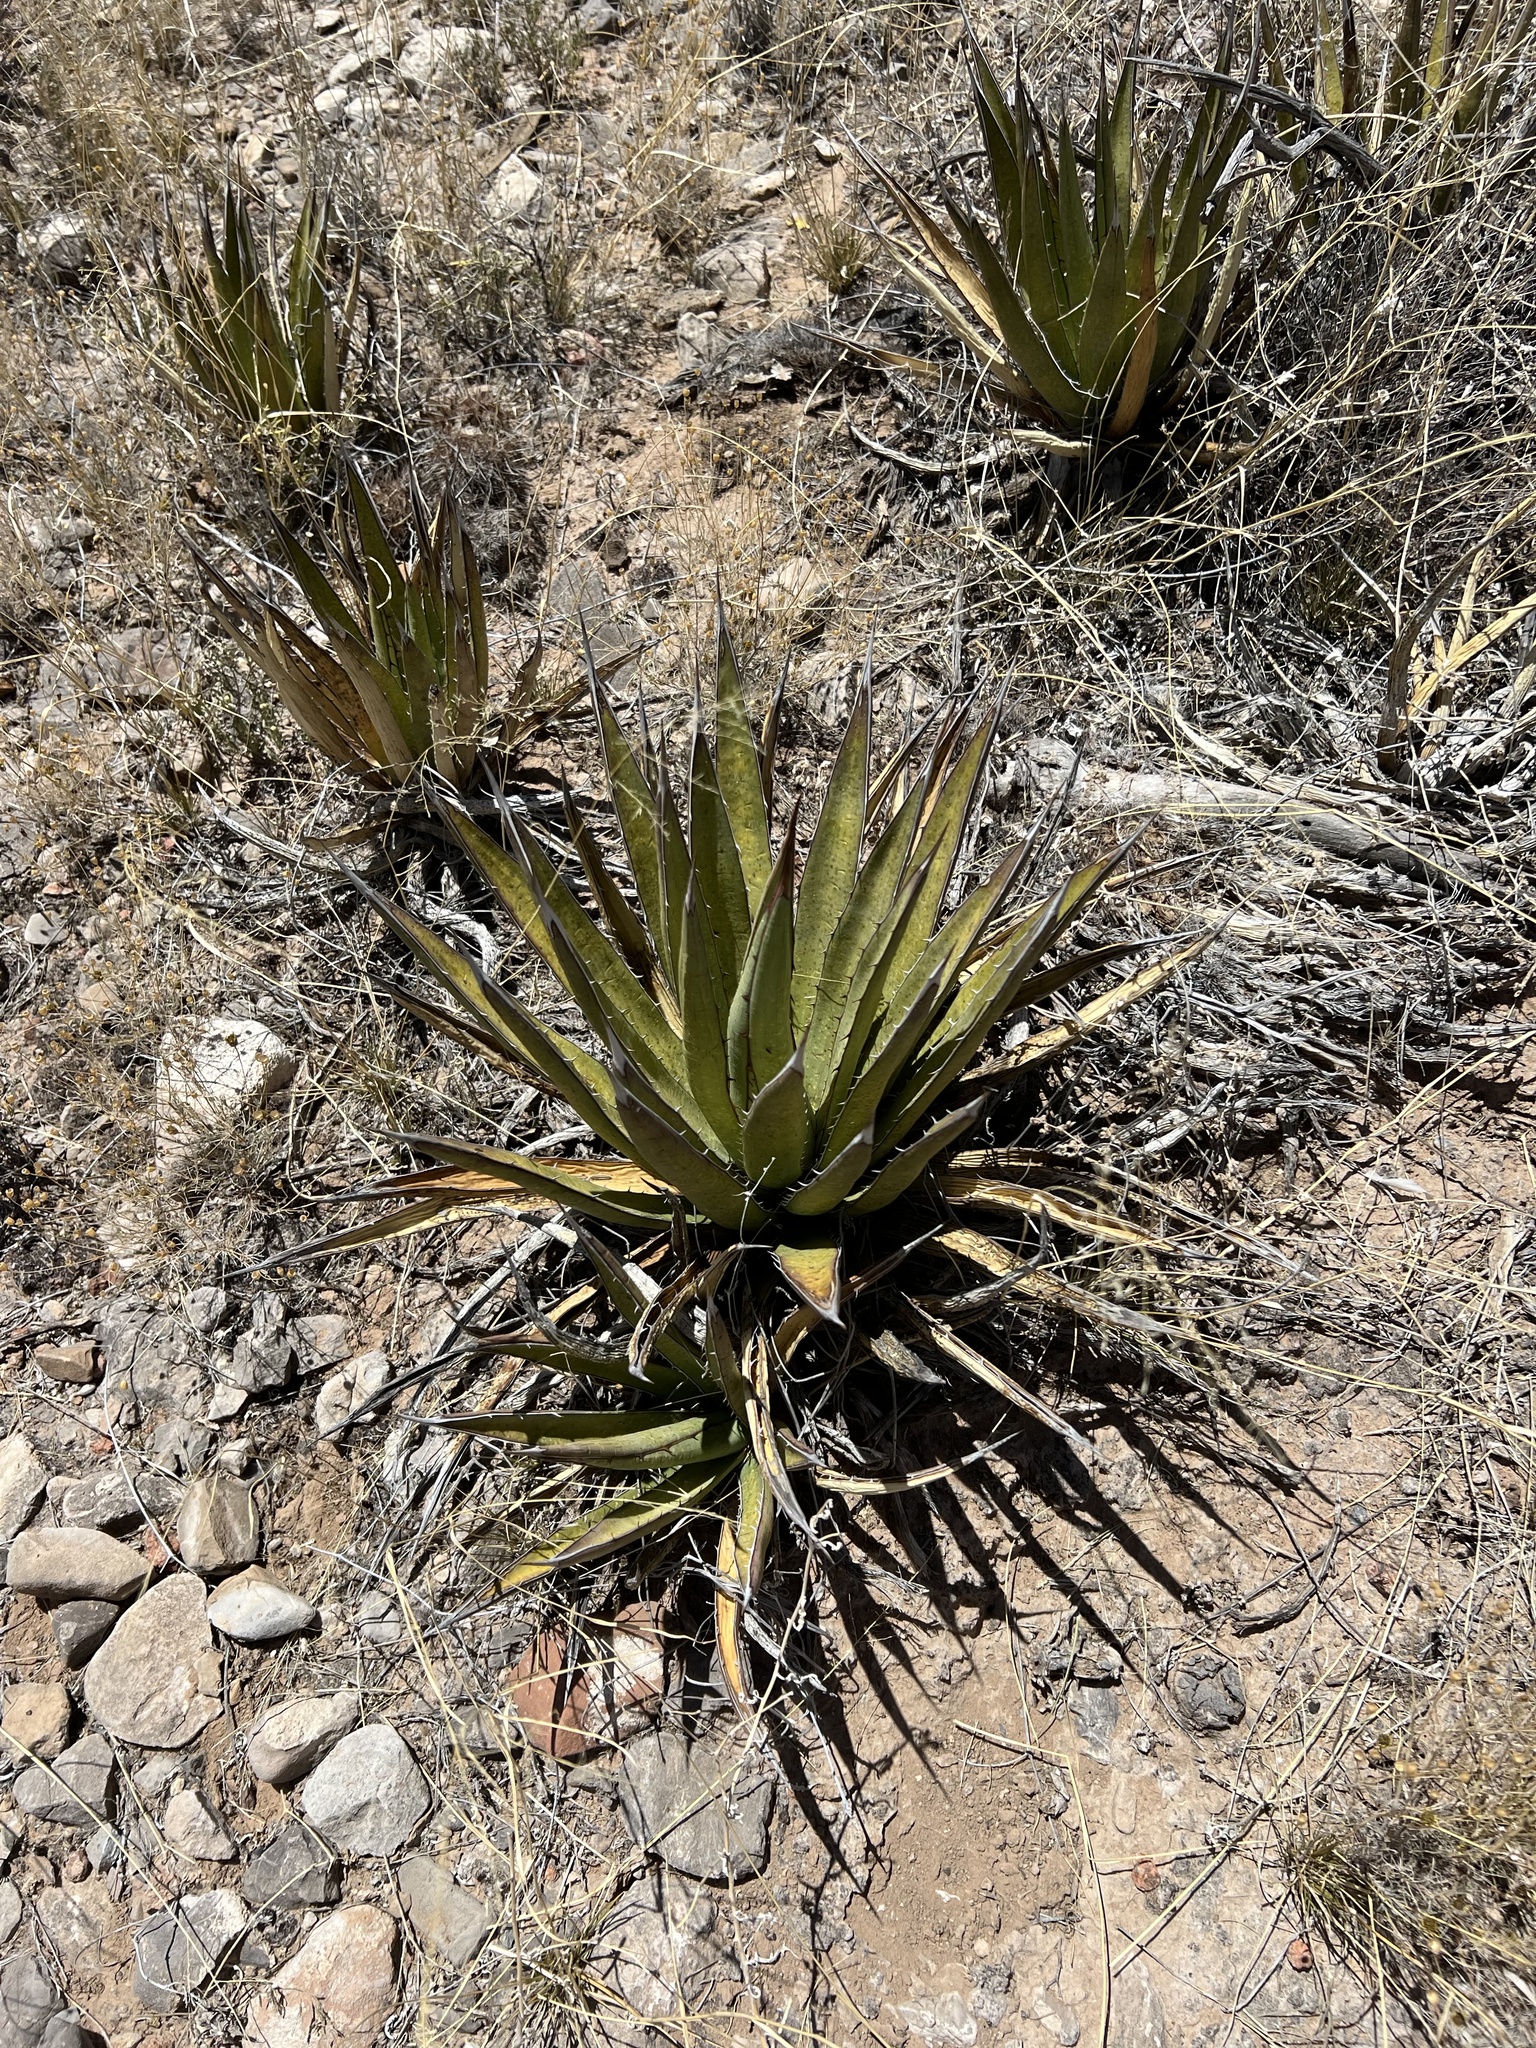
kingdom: Plantae
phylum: Tracheophyta
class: Liliopsida
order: Asparagales
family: Asparagaceae
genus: Agave
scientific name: Agave lechuguilla
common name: Lecheguilla agave
